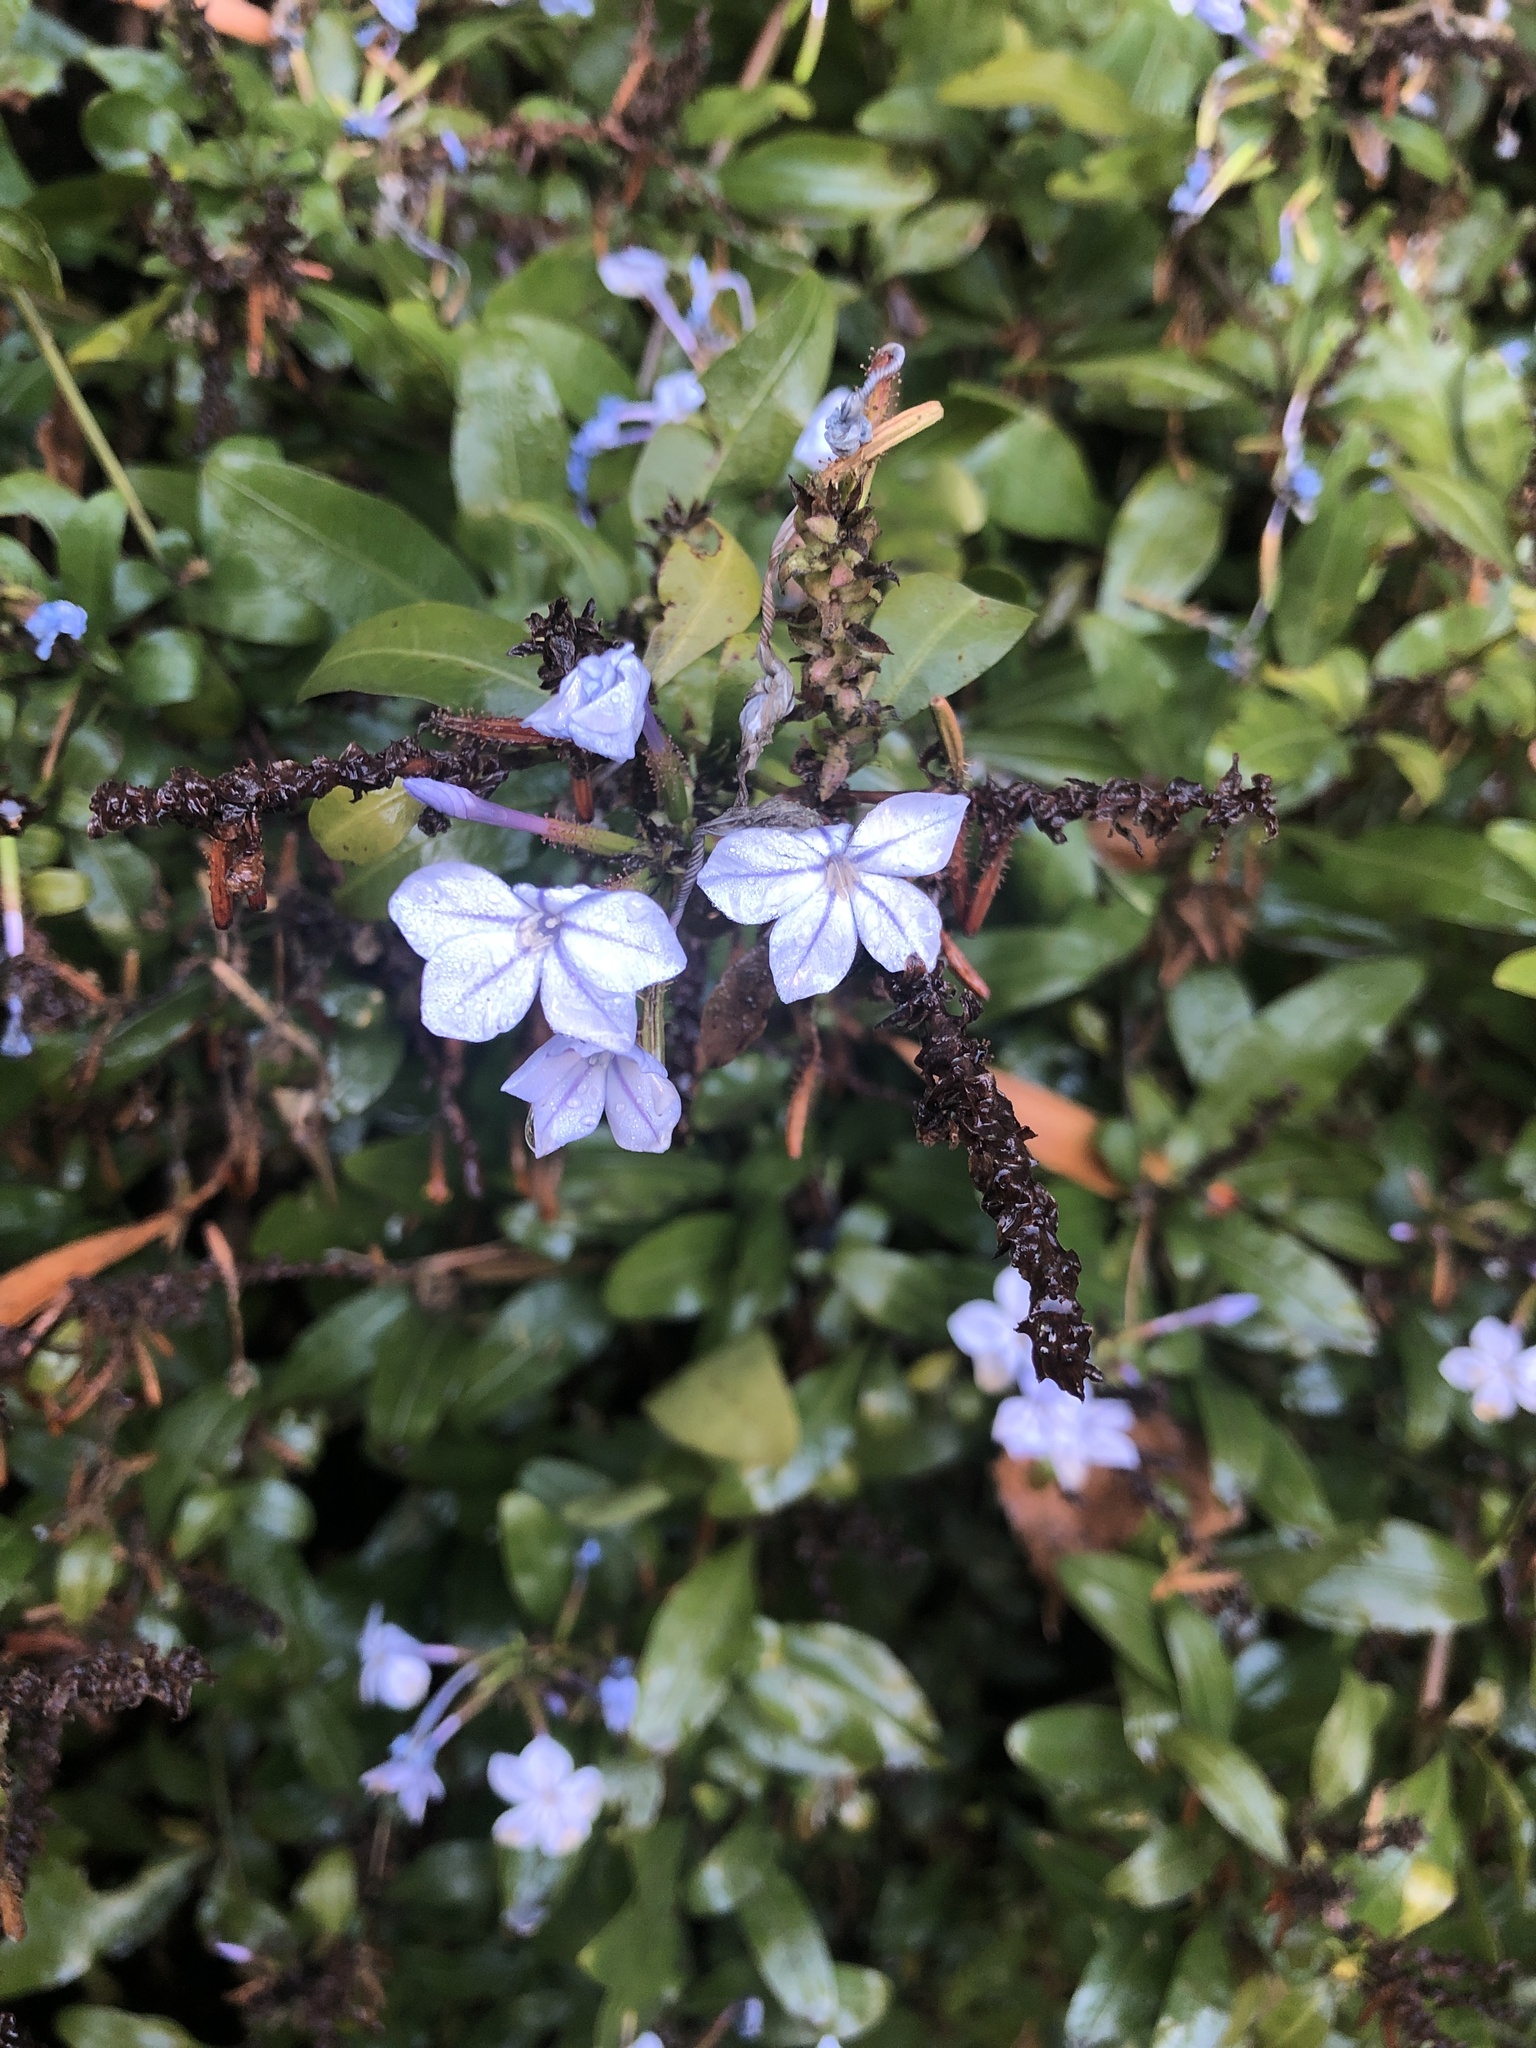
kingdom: Plantae
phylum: Tracheophyta
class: Magnoliopsida
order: Caryophyllales
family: Plumbaginaceae
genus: Plumbago
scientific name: Plumbago auriculata
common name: Cape leadwort
